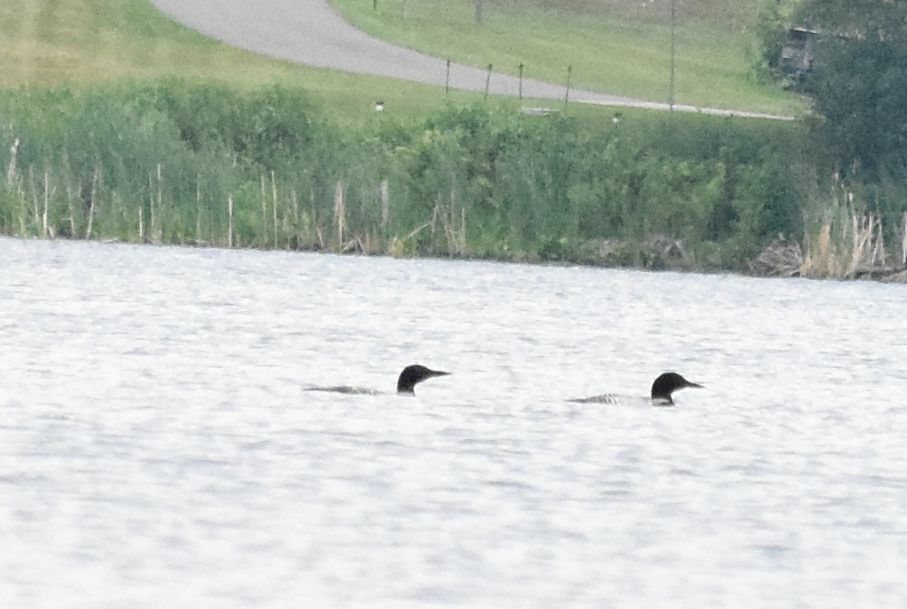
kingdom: Animalia
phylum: Chordata
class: Aves
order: Gaviiformes
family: Gaviidae
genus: Gavia
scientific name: Gavia immer
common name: Common loon
